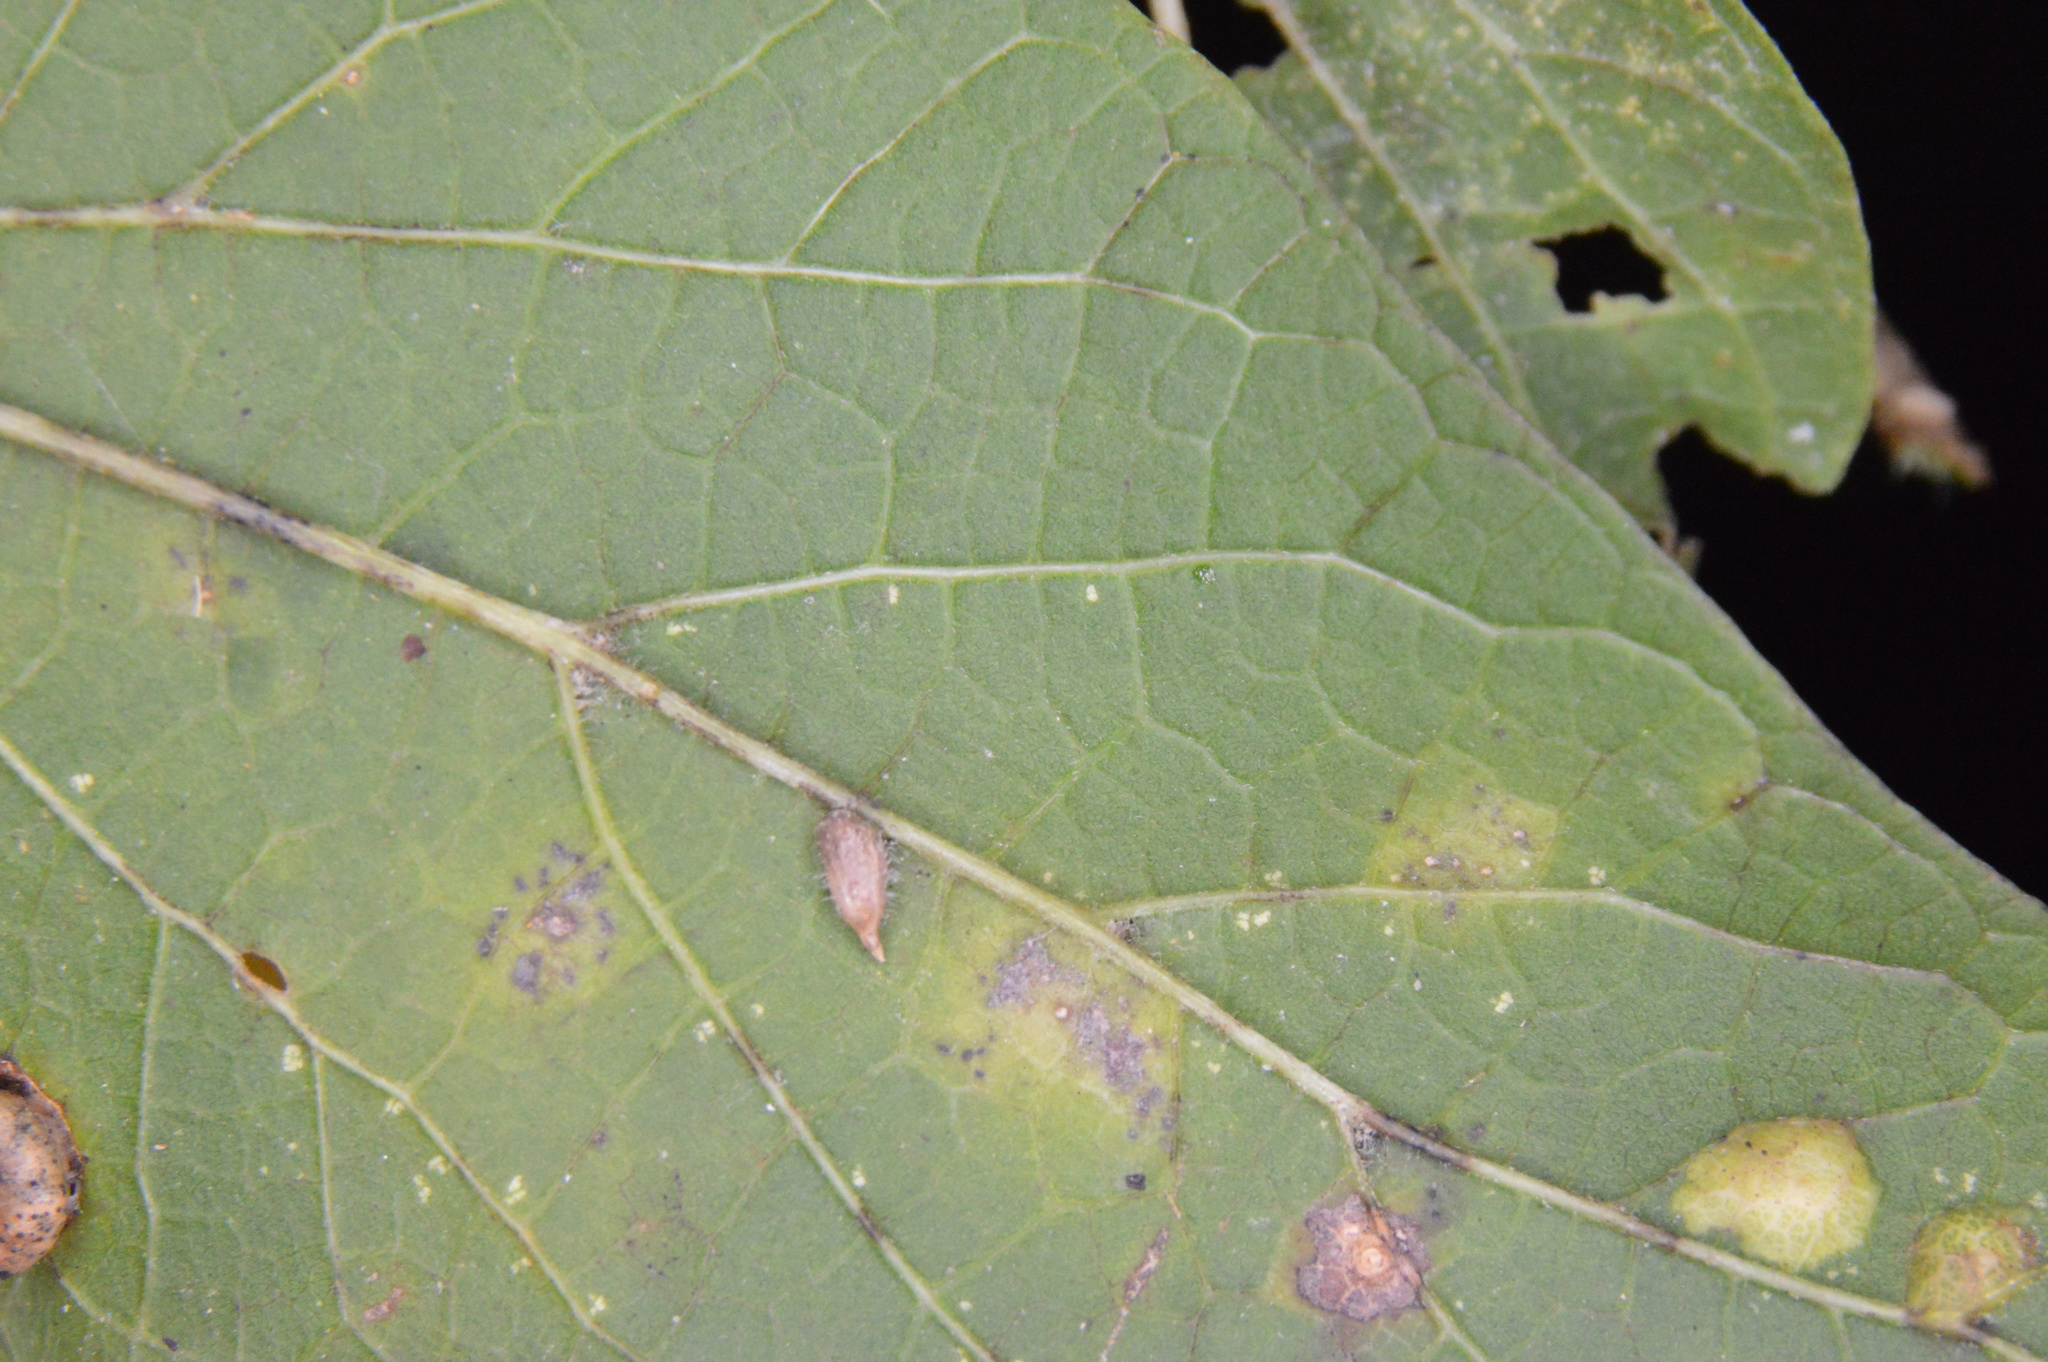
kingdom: Animalia
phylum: Arthropoda
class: Insecta
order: Diptera
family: Cecidomyiidae
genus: Celticecis
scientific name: Celticecis supina
